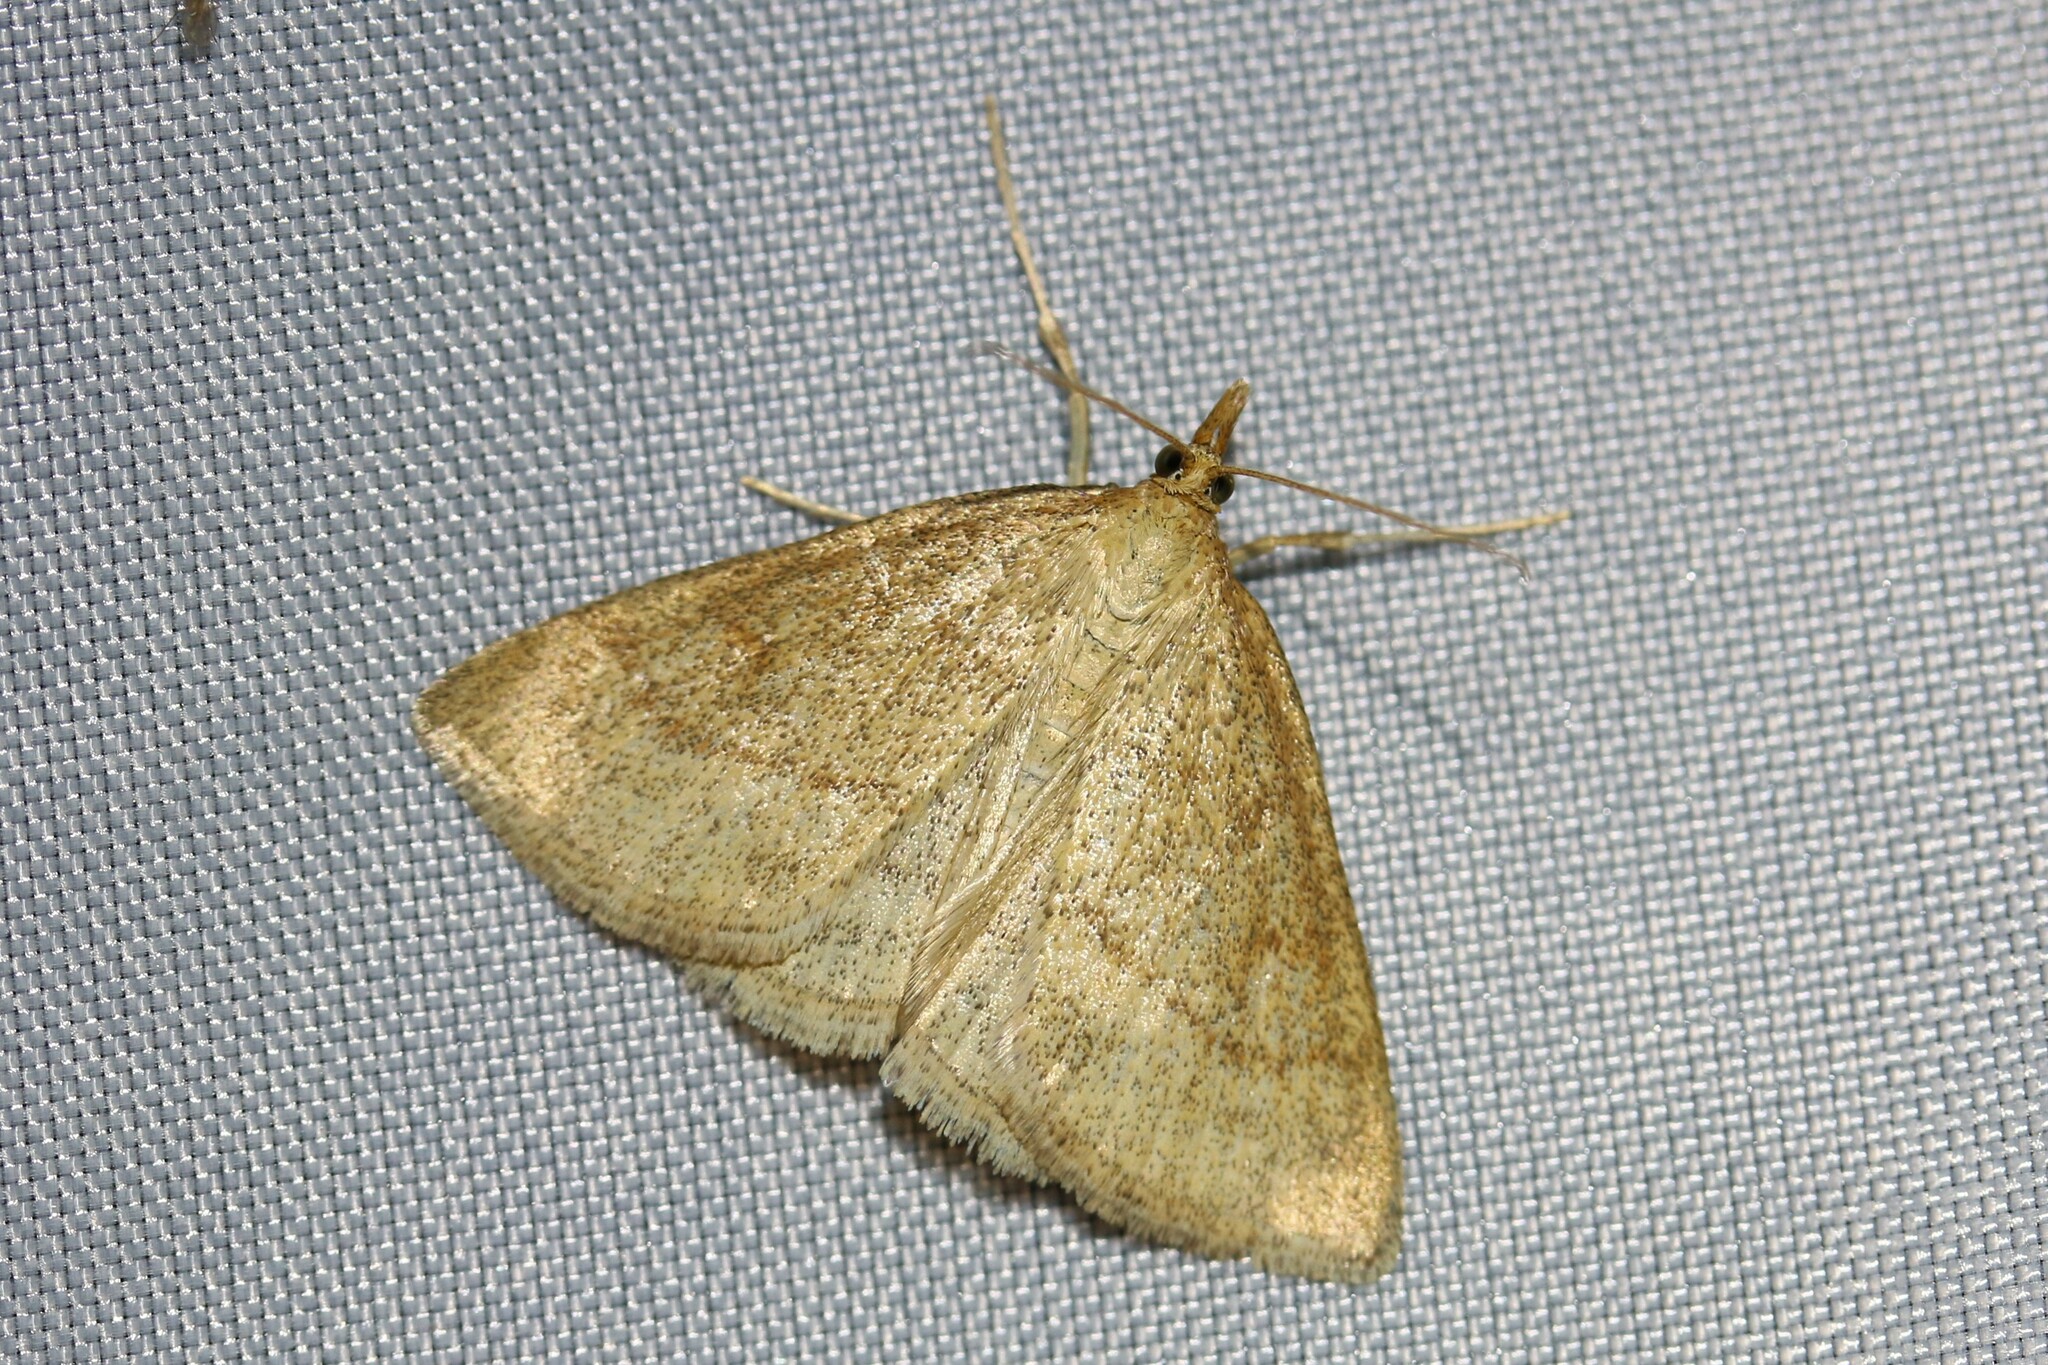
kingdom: Animalia
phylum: Arthropoda
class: Insecta
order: Lepidoptera
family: Crambidae
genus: Psammotis
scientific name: Psammotis viminalis
